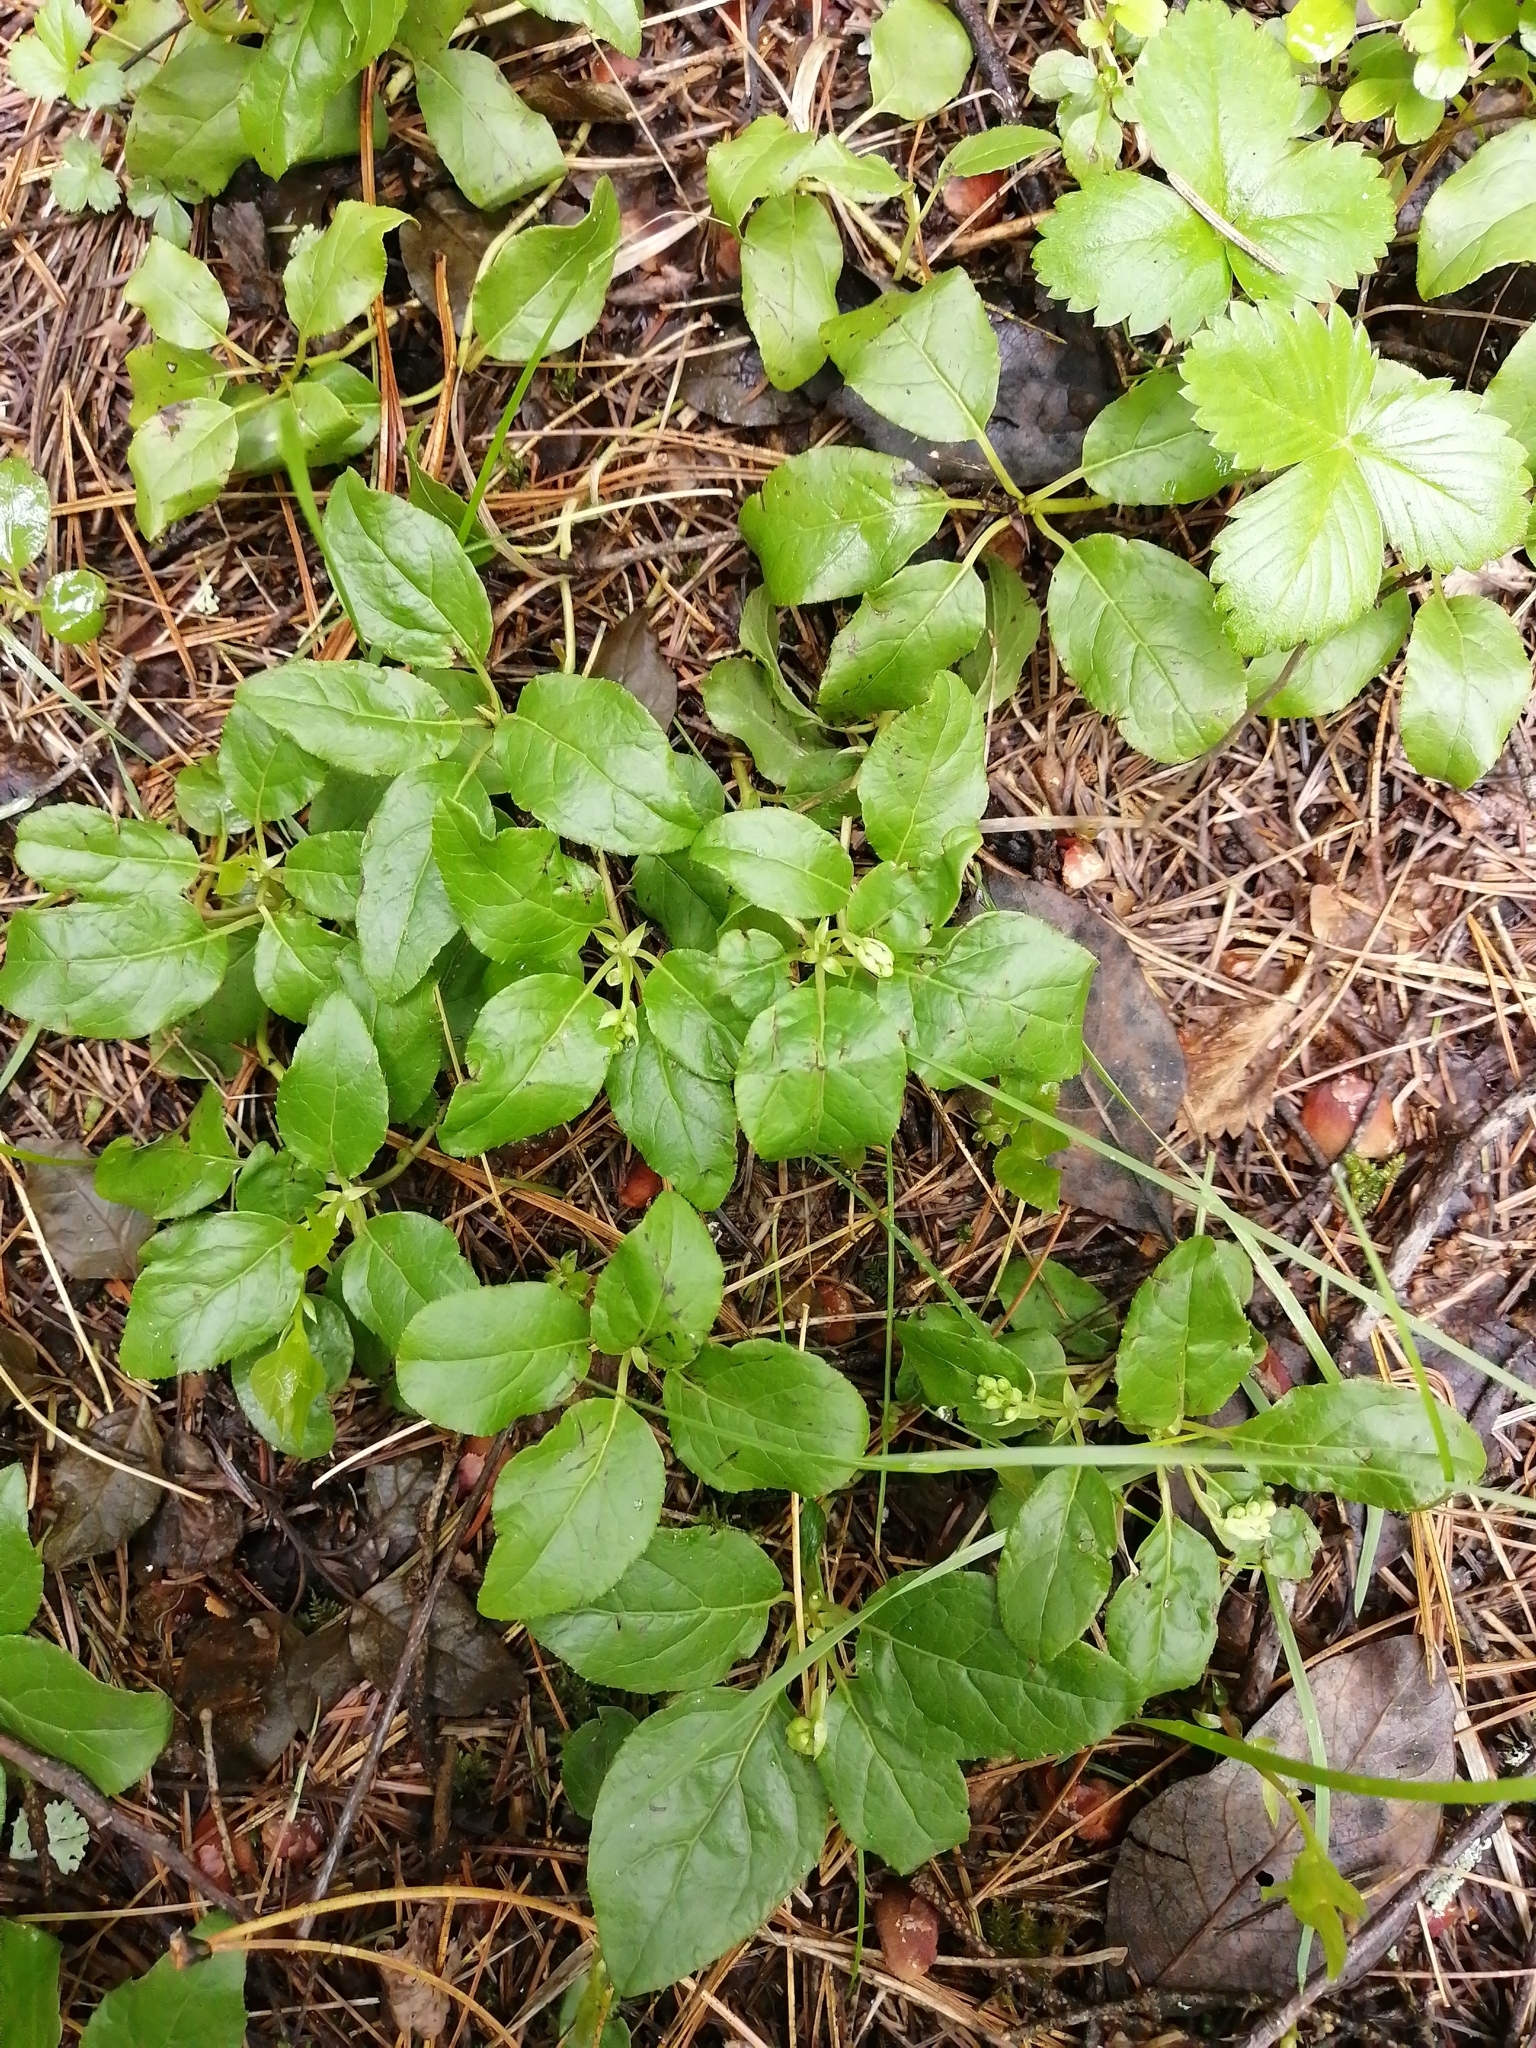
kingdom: Plantae
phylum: Tracheophyta
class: Magnoliopsida
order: Ericales
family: Ericaceae
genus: Orthilia
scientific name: Orthilia secunda
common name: One-sided orthilia
